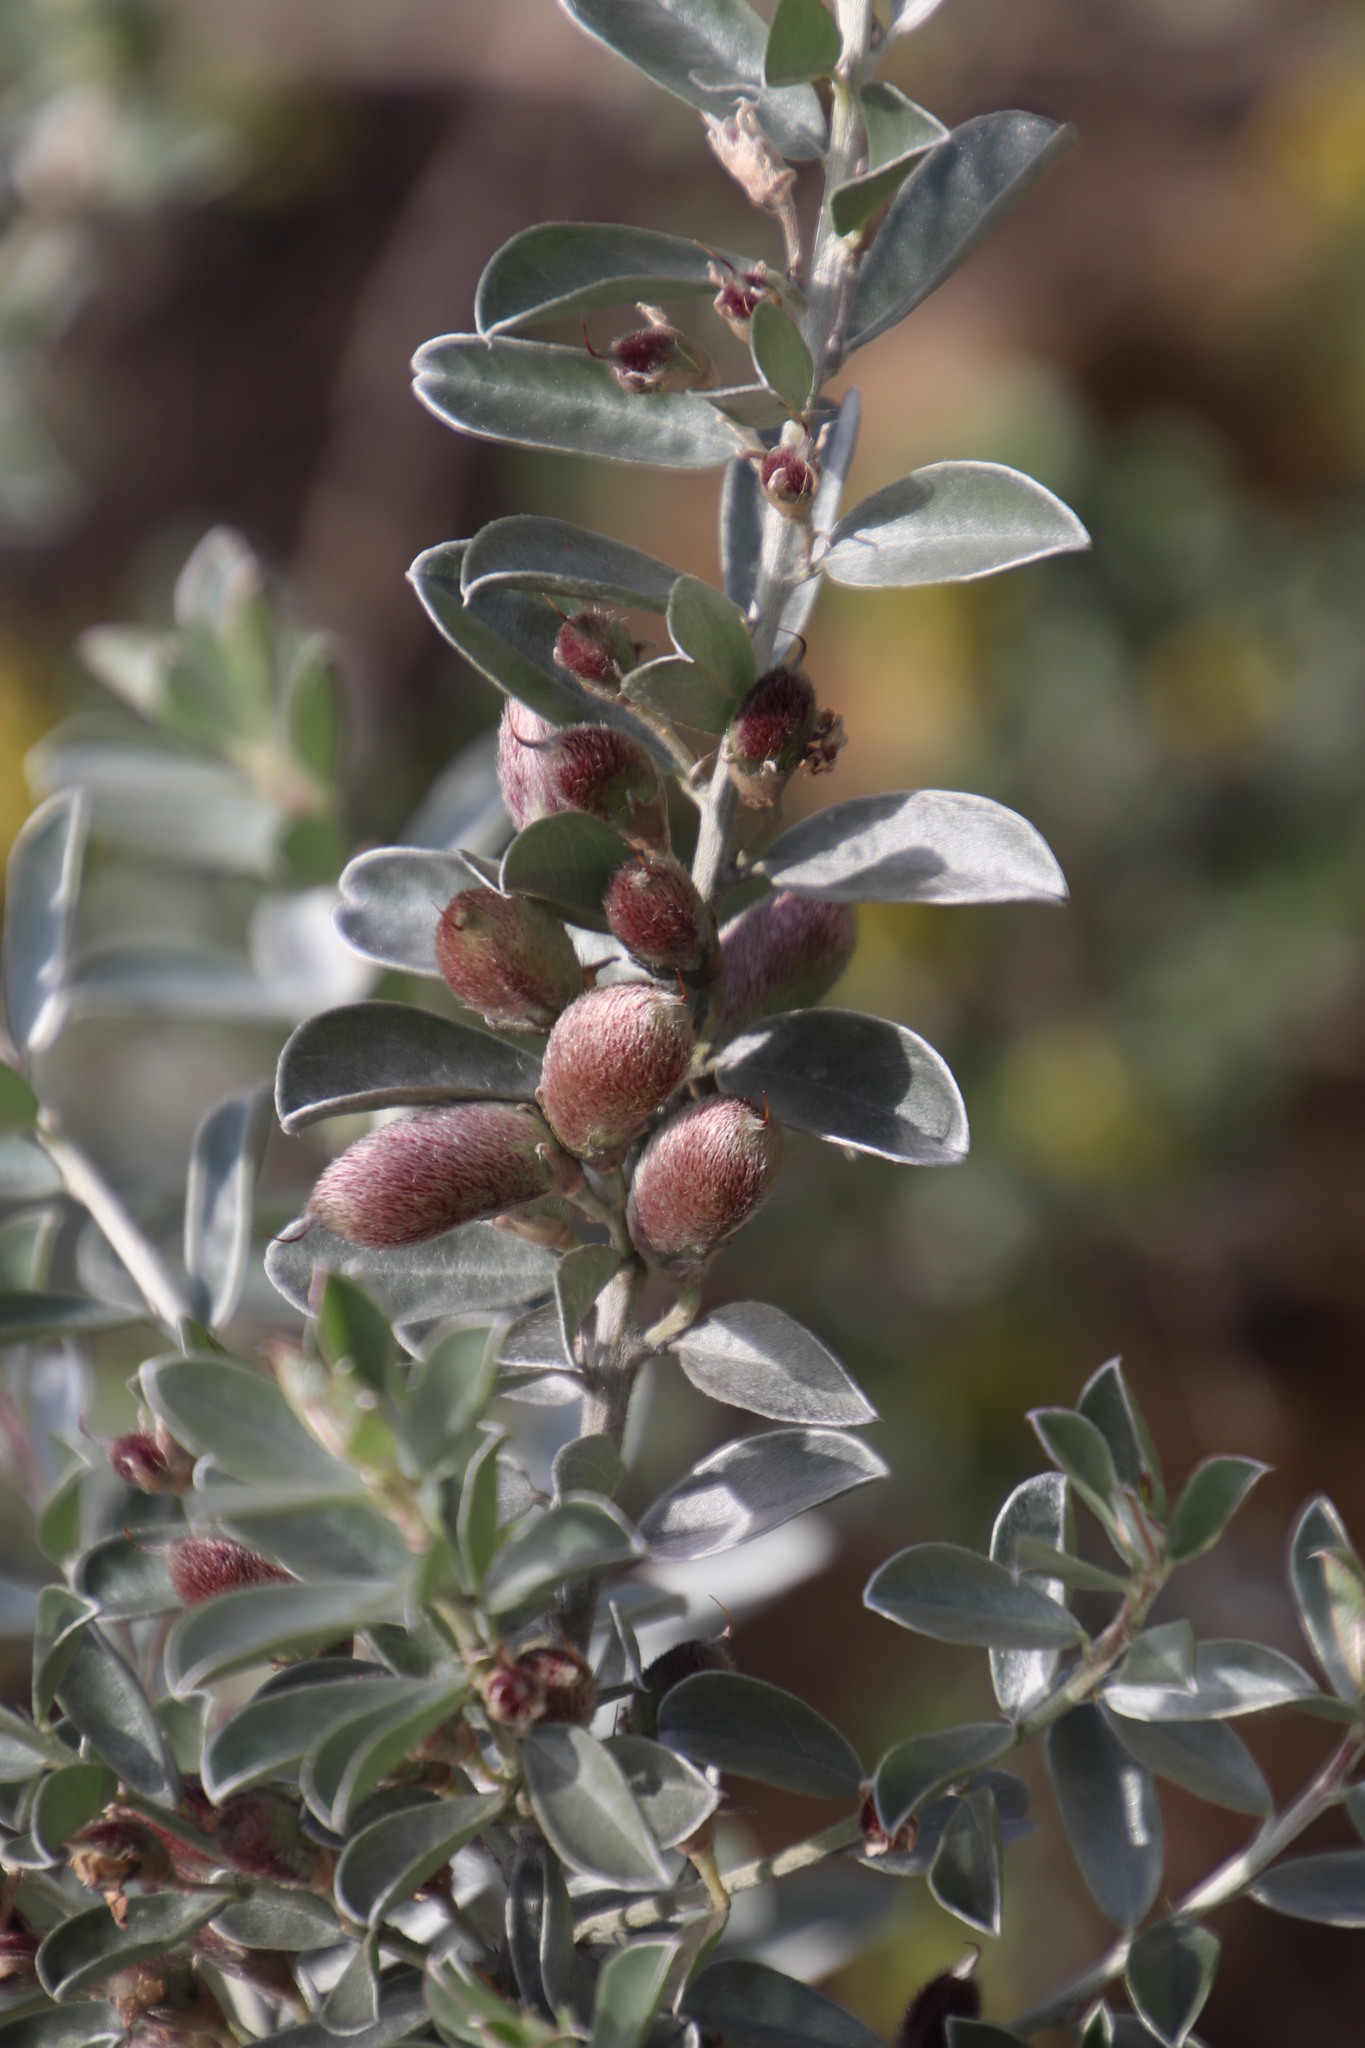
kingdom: Plantae
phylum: Tracheophyta
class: Magnoliopsida
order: Fabales
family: Fabaceae
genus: Podalyria
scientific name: Podalyria sericea
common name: Silver podalyria
